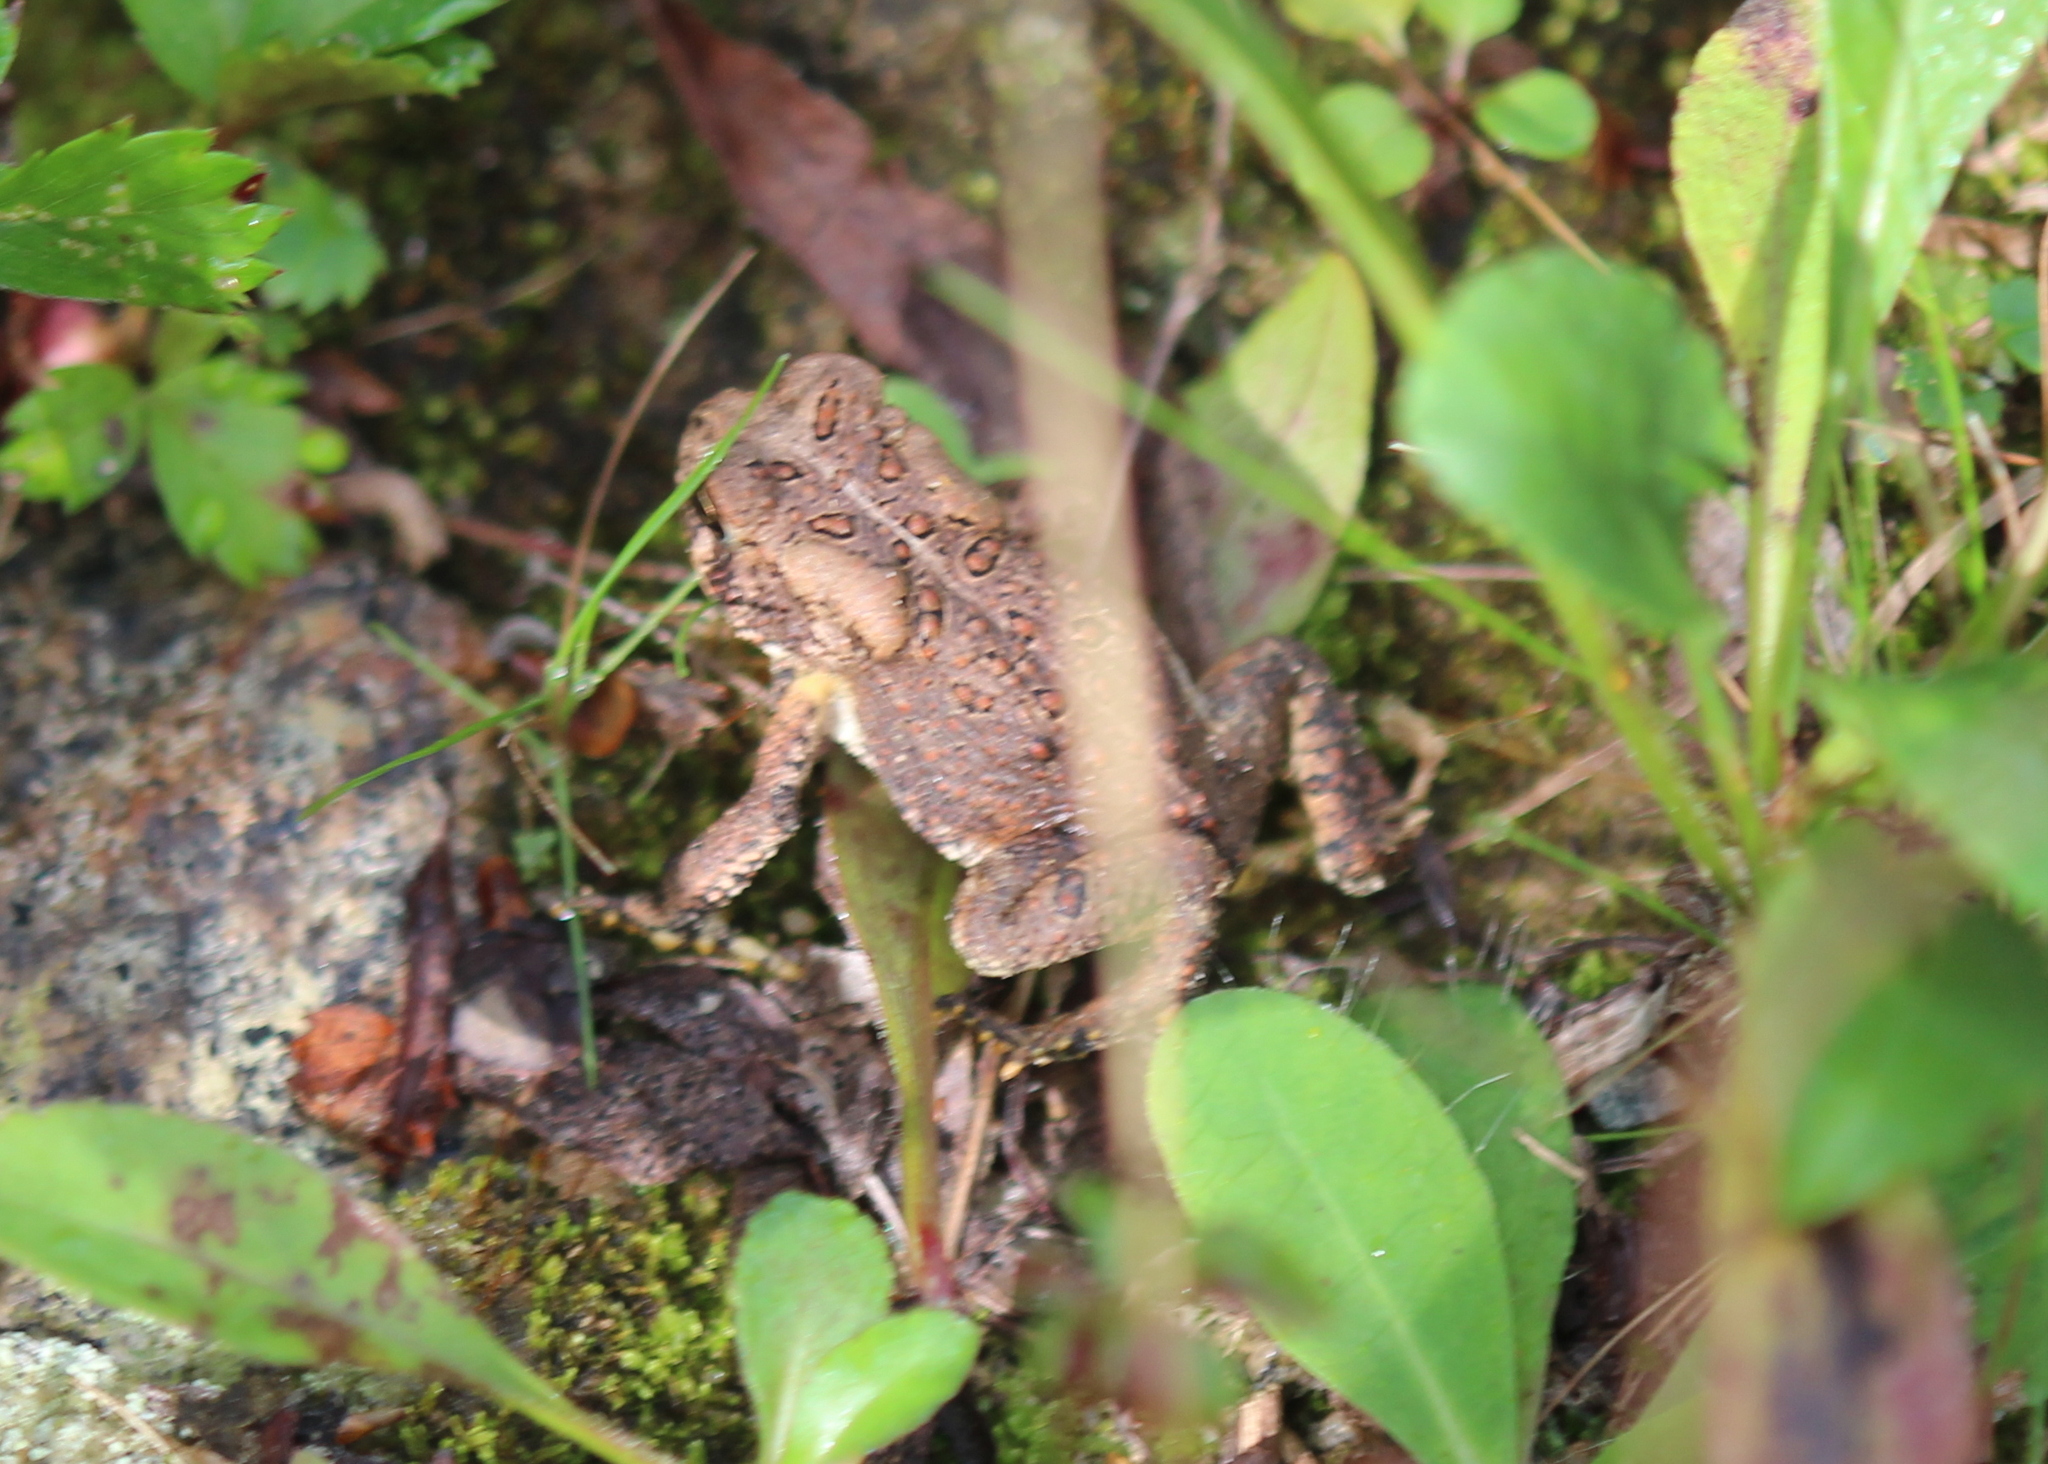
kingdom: Animalia
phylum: Chordata
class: Amphibia
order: Anura
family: Bufonidae
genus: Anaxyrus
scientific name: Anaxyrus americanus
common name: American toad
